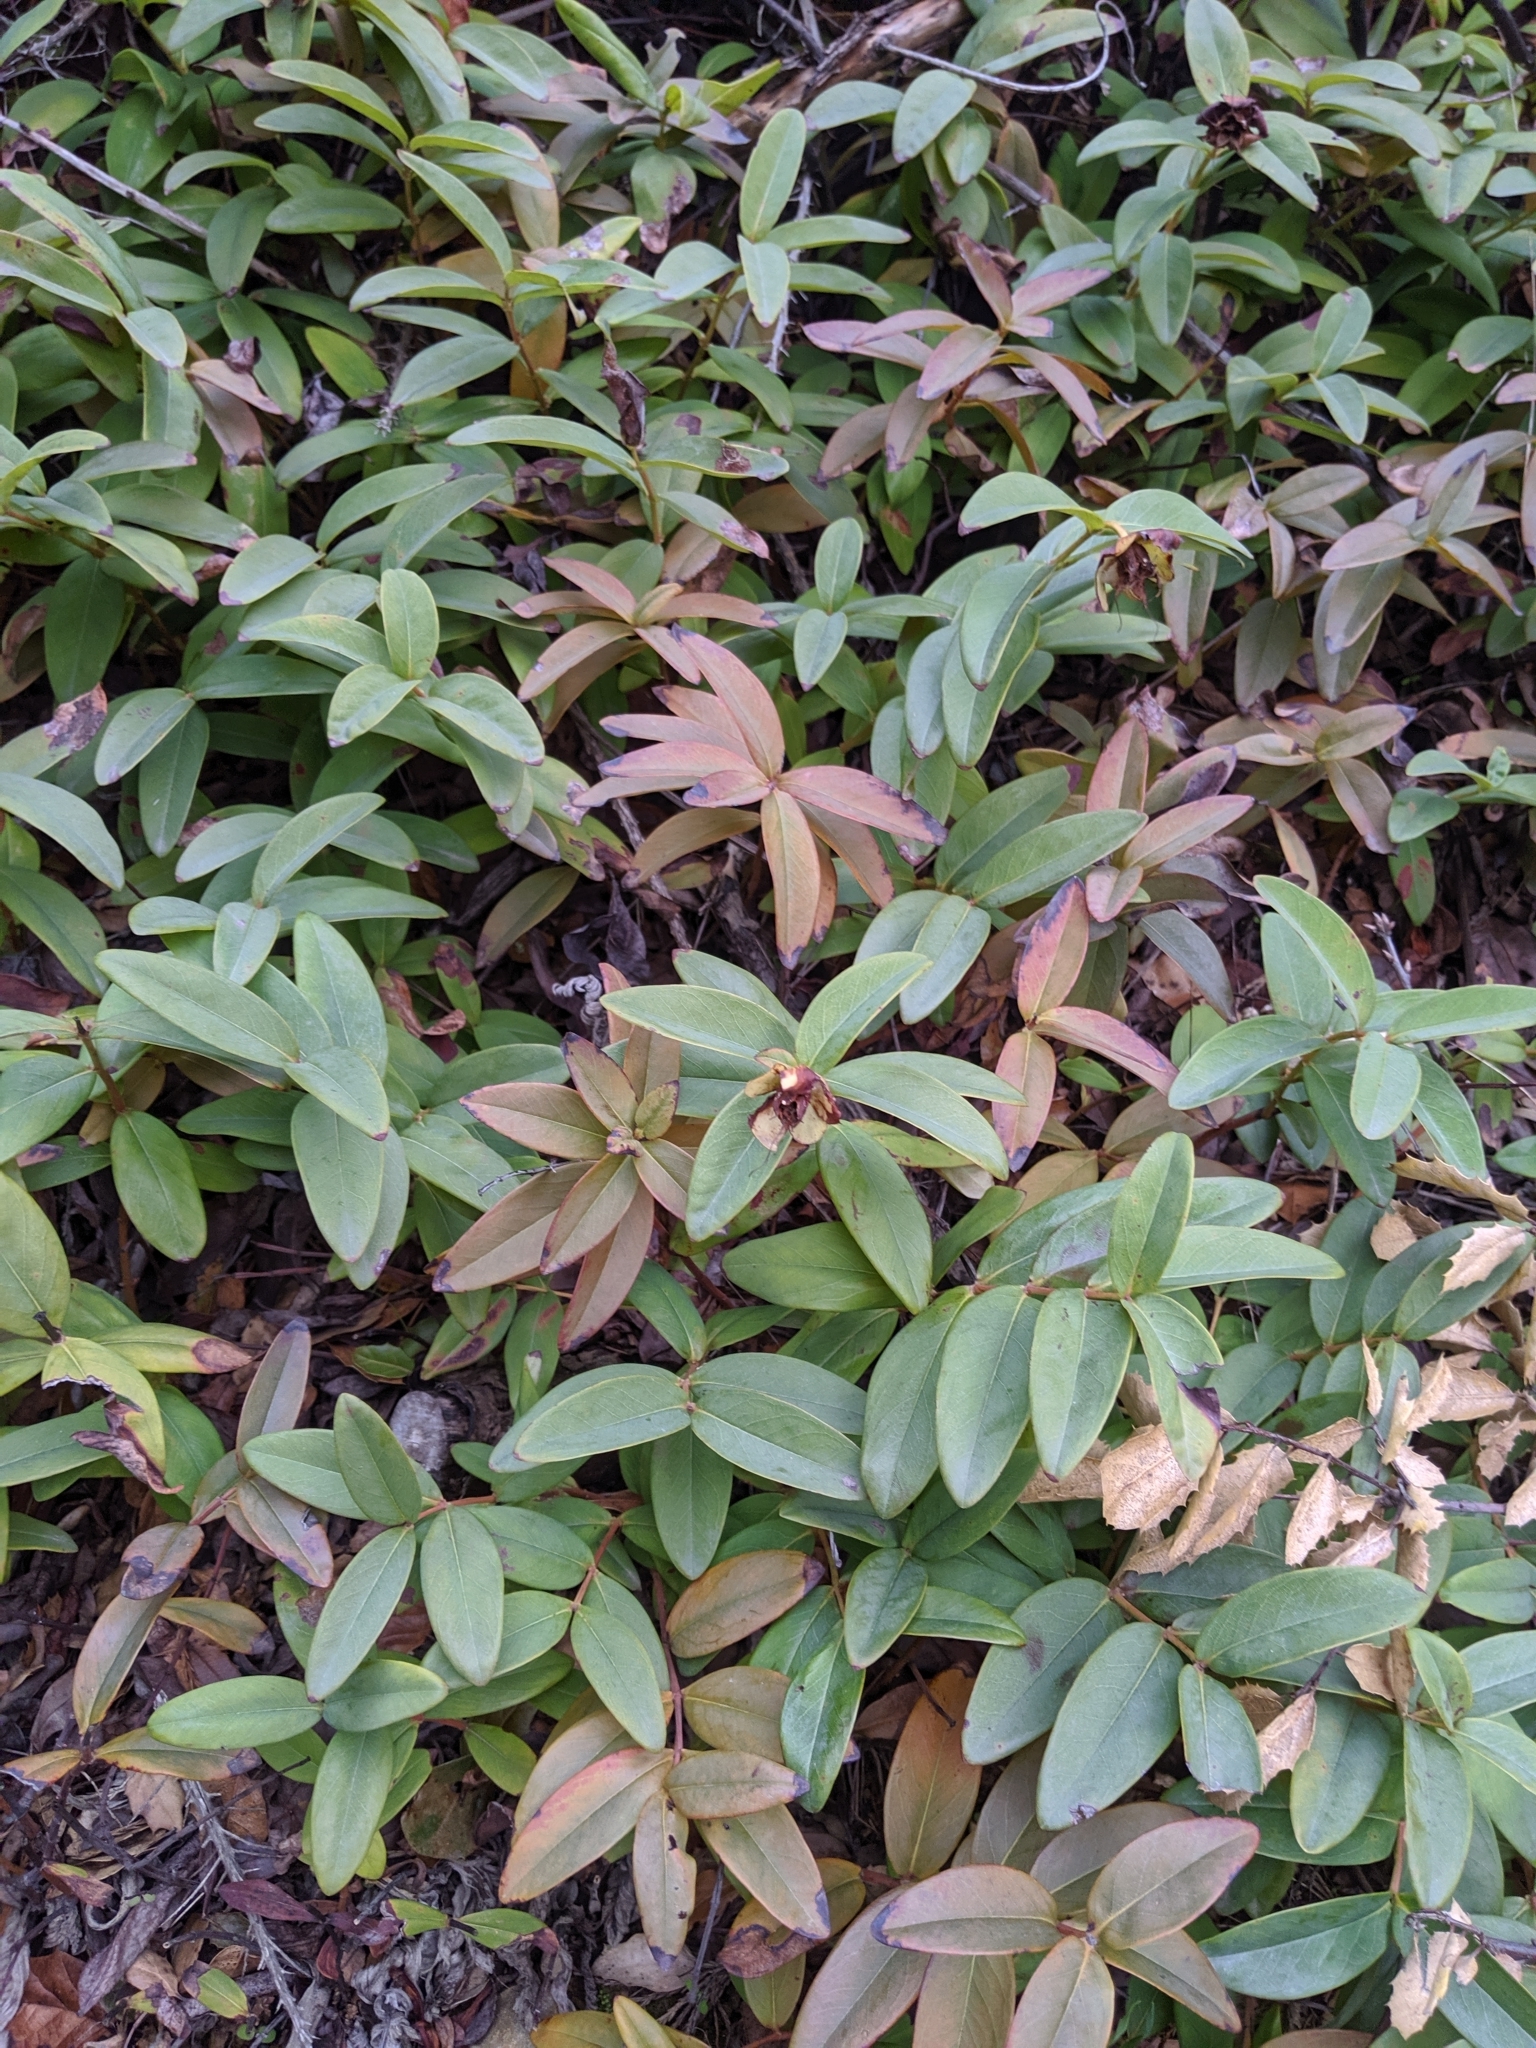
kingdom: Plantae
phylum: Tracheophyta
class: Magnoliopsida
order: Malpighiales
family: Hypericaceae
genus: Hypericum
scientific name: Hypericum calycinum
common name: Rose-of-sharon
